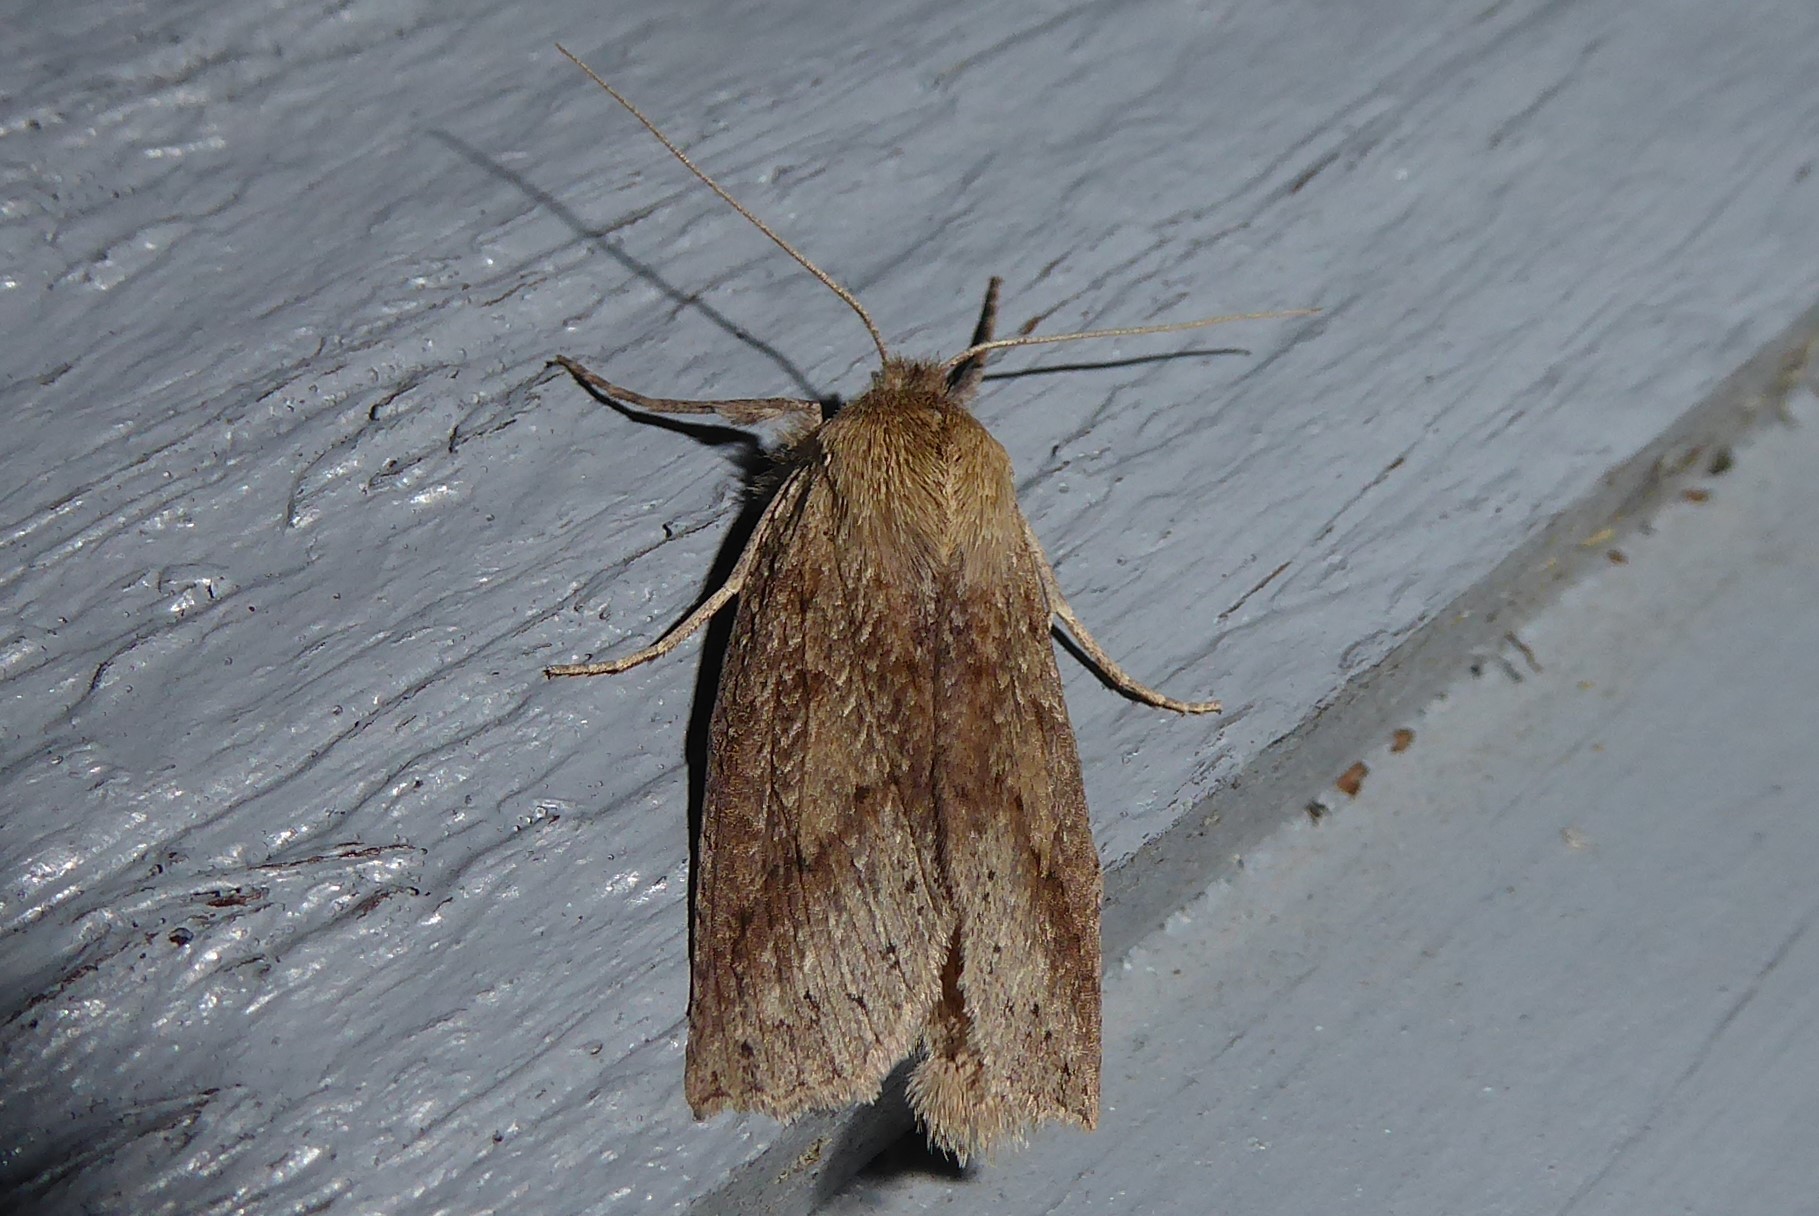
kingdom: Animalia
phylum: Arthropoda
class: Insecta
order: Lepidoptera
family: Geometridae
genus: Declana
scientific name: Declana leptomera
